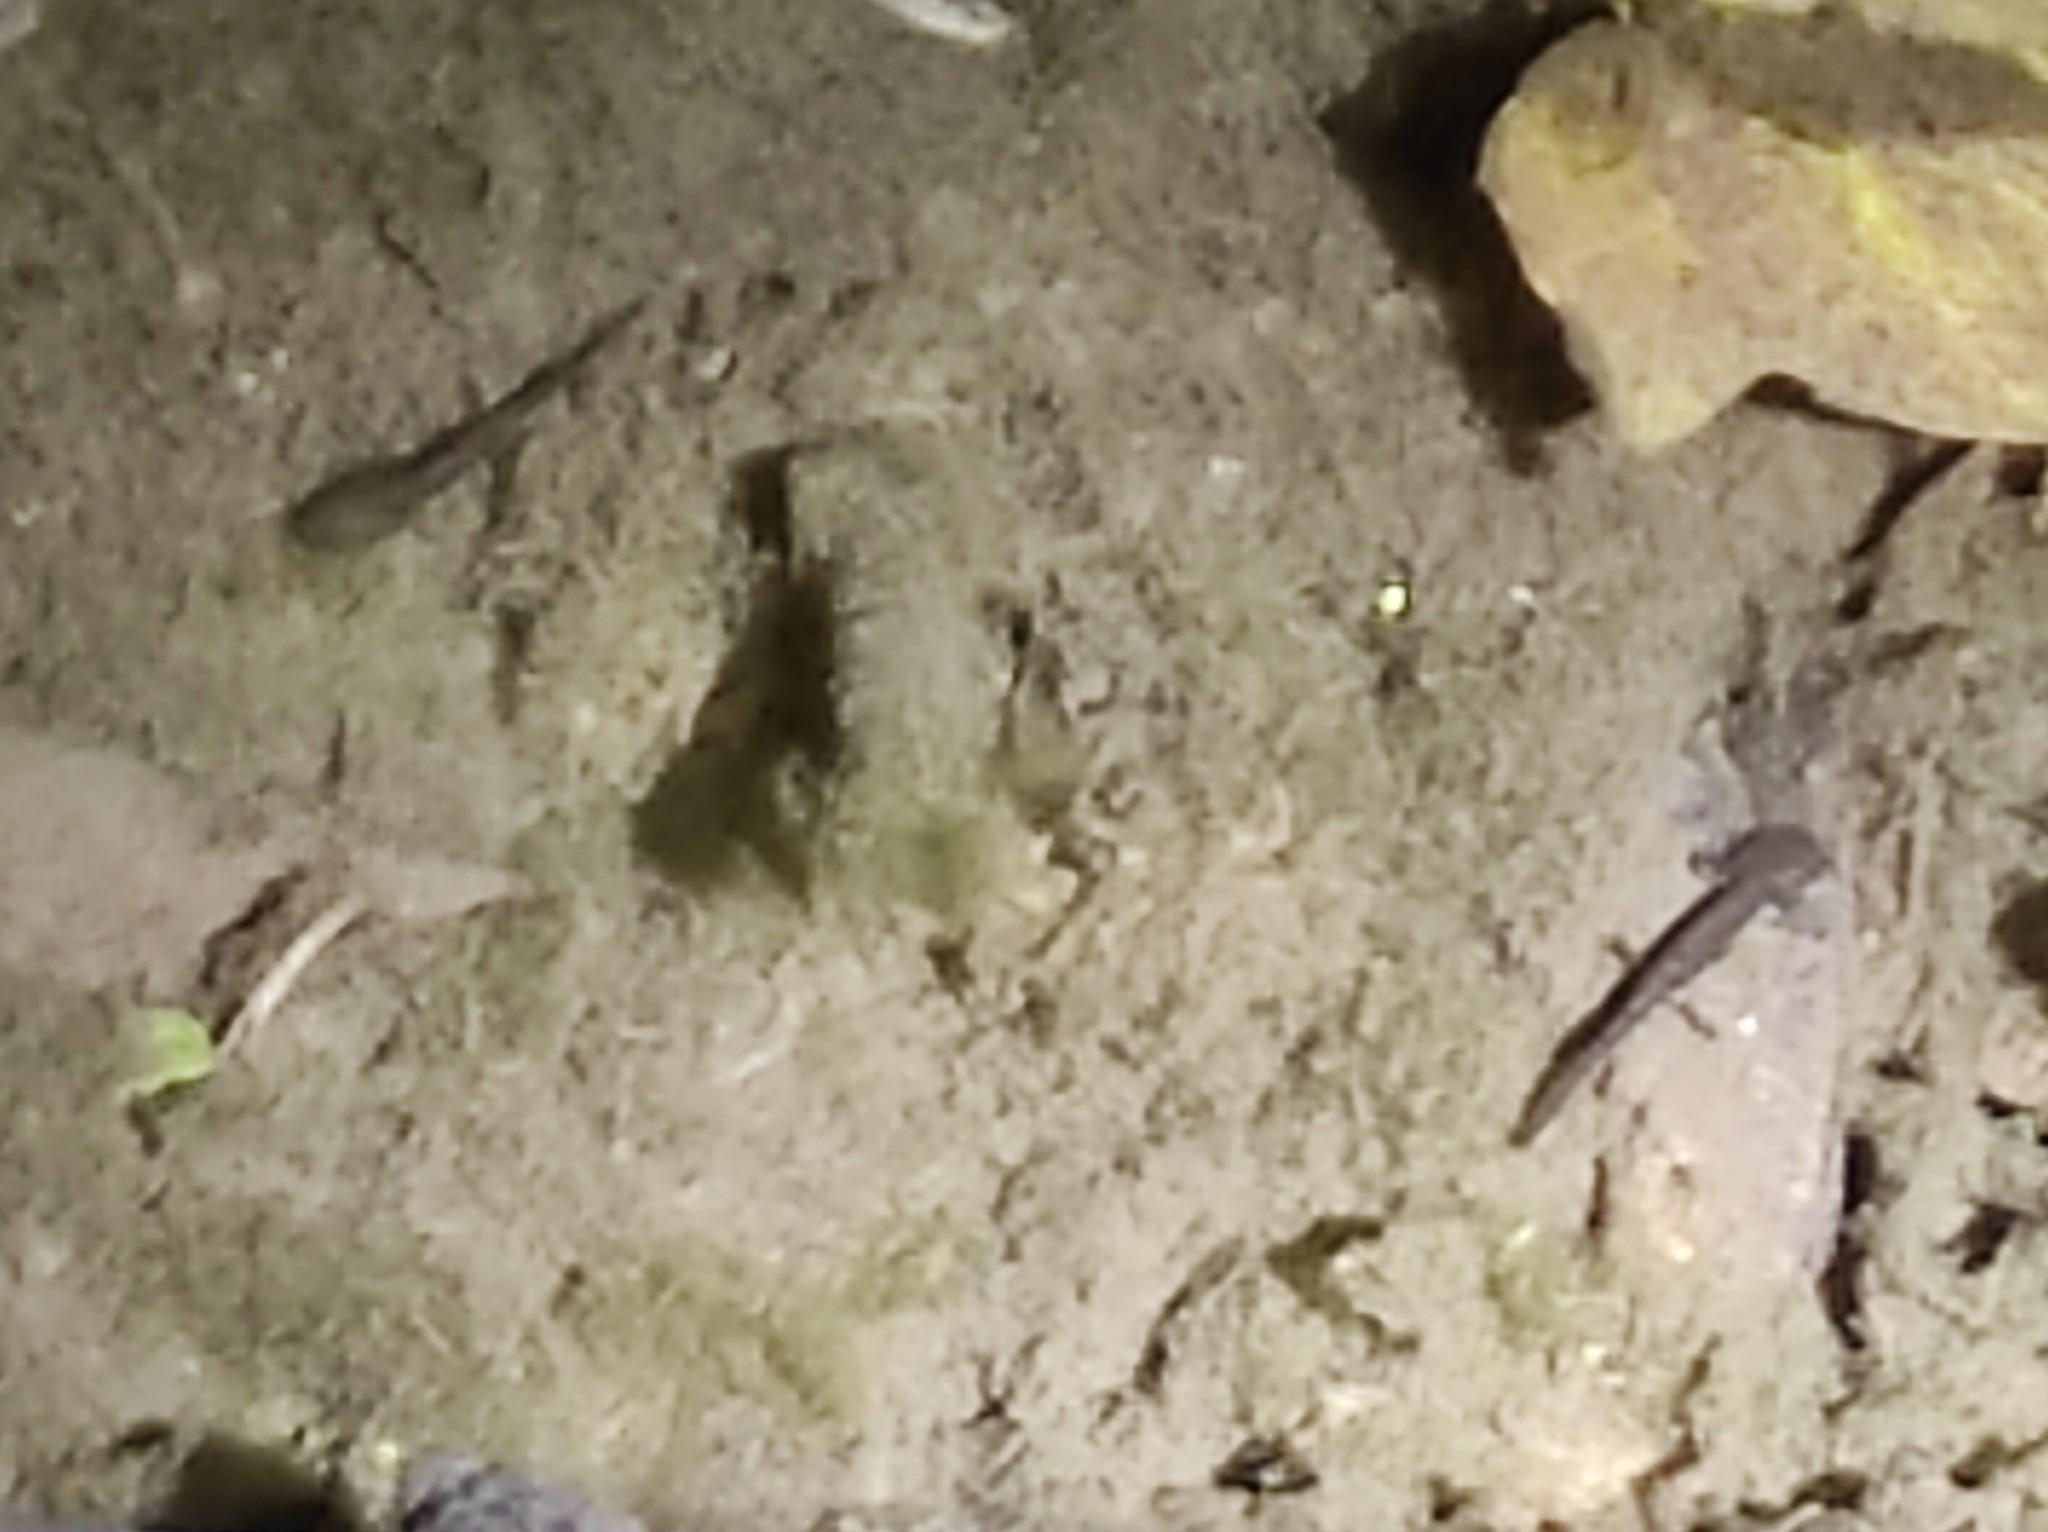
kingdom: Animalia
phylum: Chordata
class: Amphibia
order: Caudata
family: Salamandridae
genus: Salamandra
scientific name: Salamandra salamandra
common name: Fire salamander
